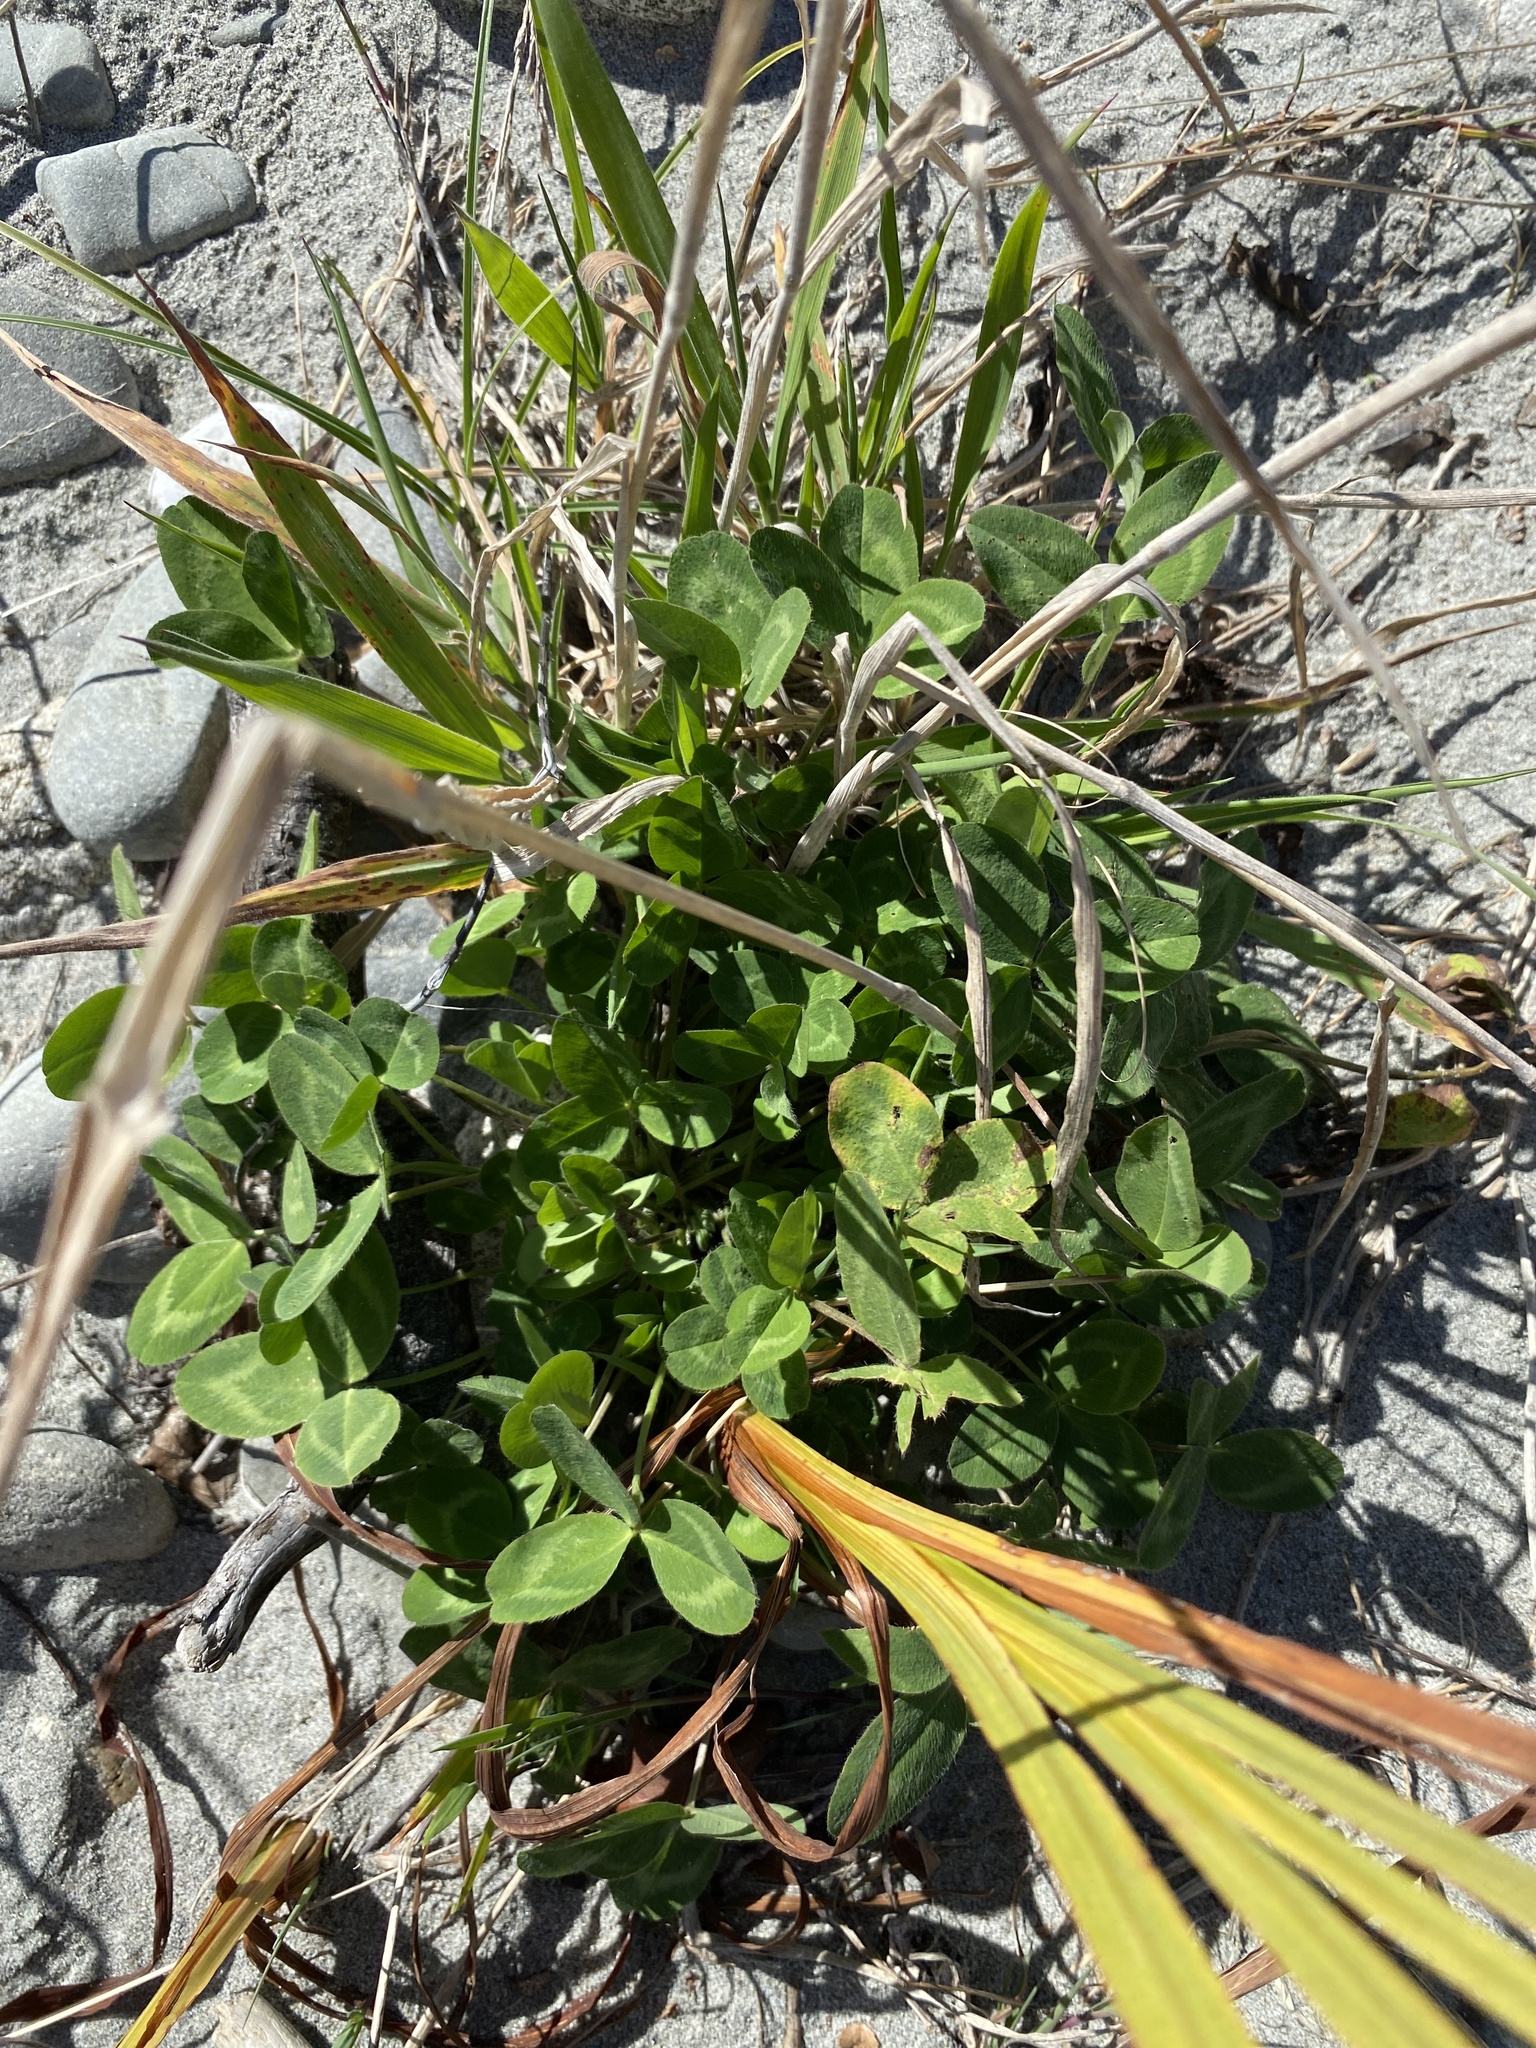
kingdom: Plantae
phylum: Tracheophyta
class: Magnoliopsida
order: Fabales
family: Fabaceae
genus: Trifolium
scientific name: Trifolium repens
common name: White clover
